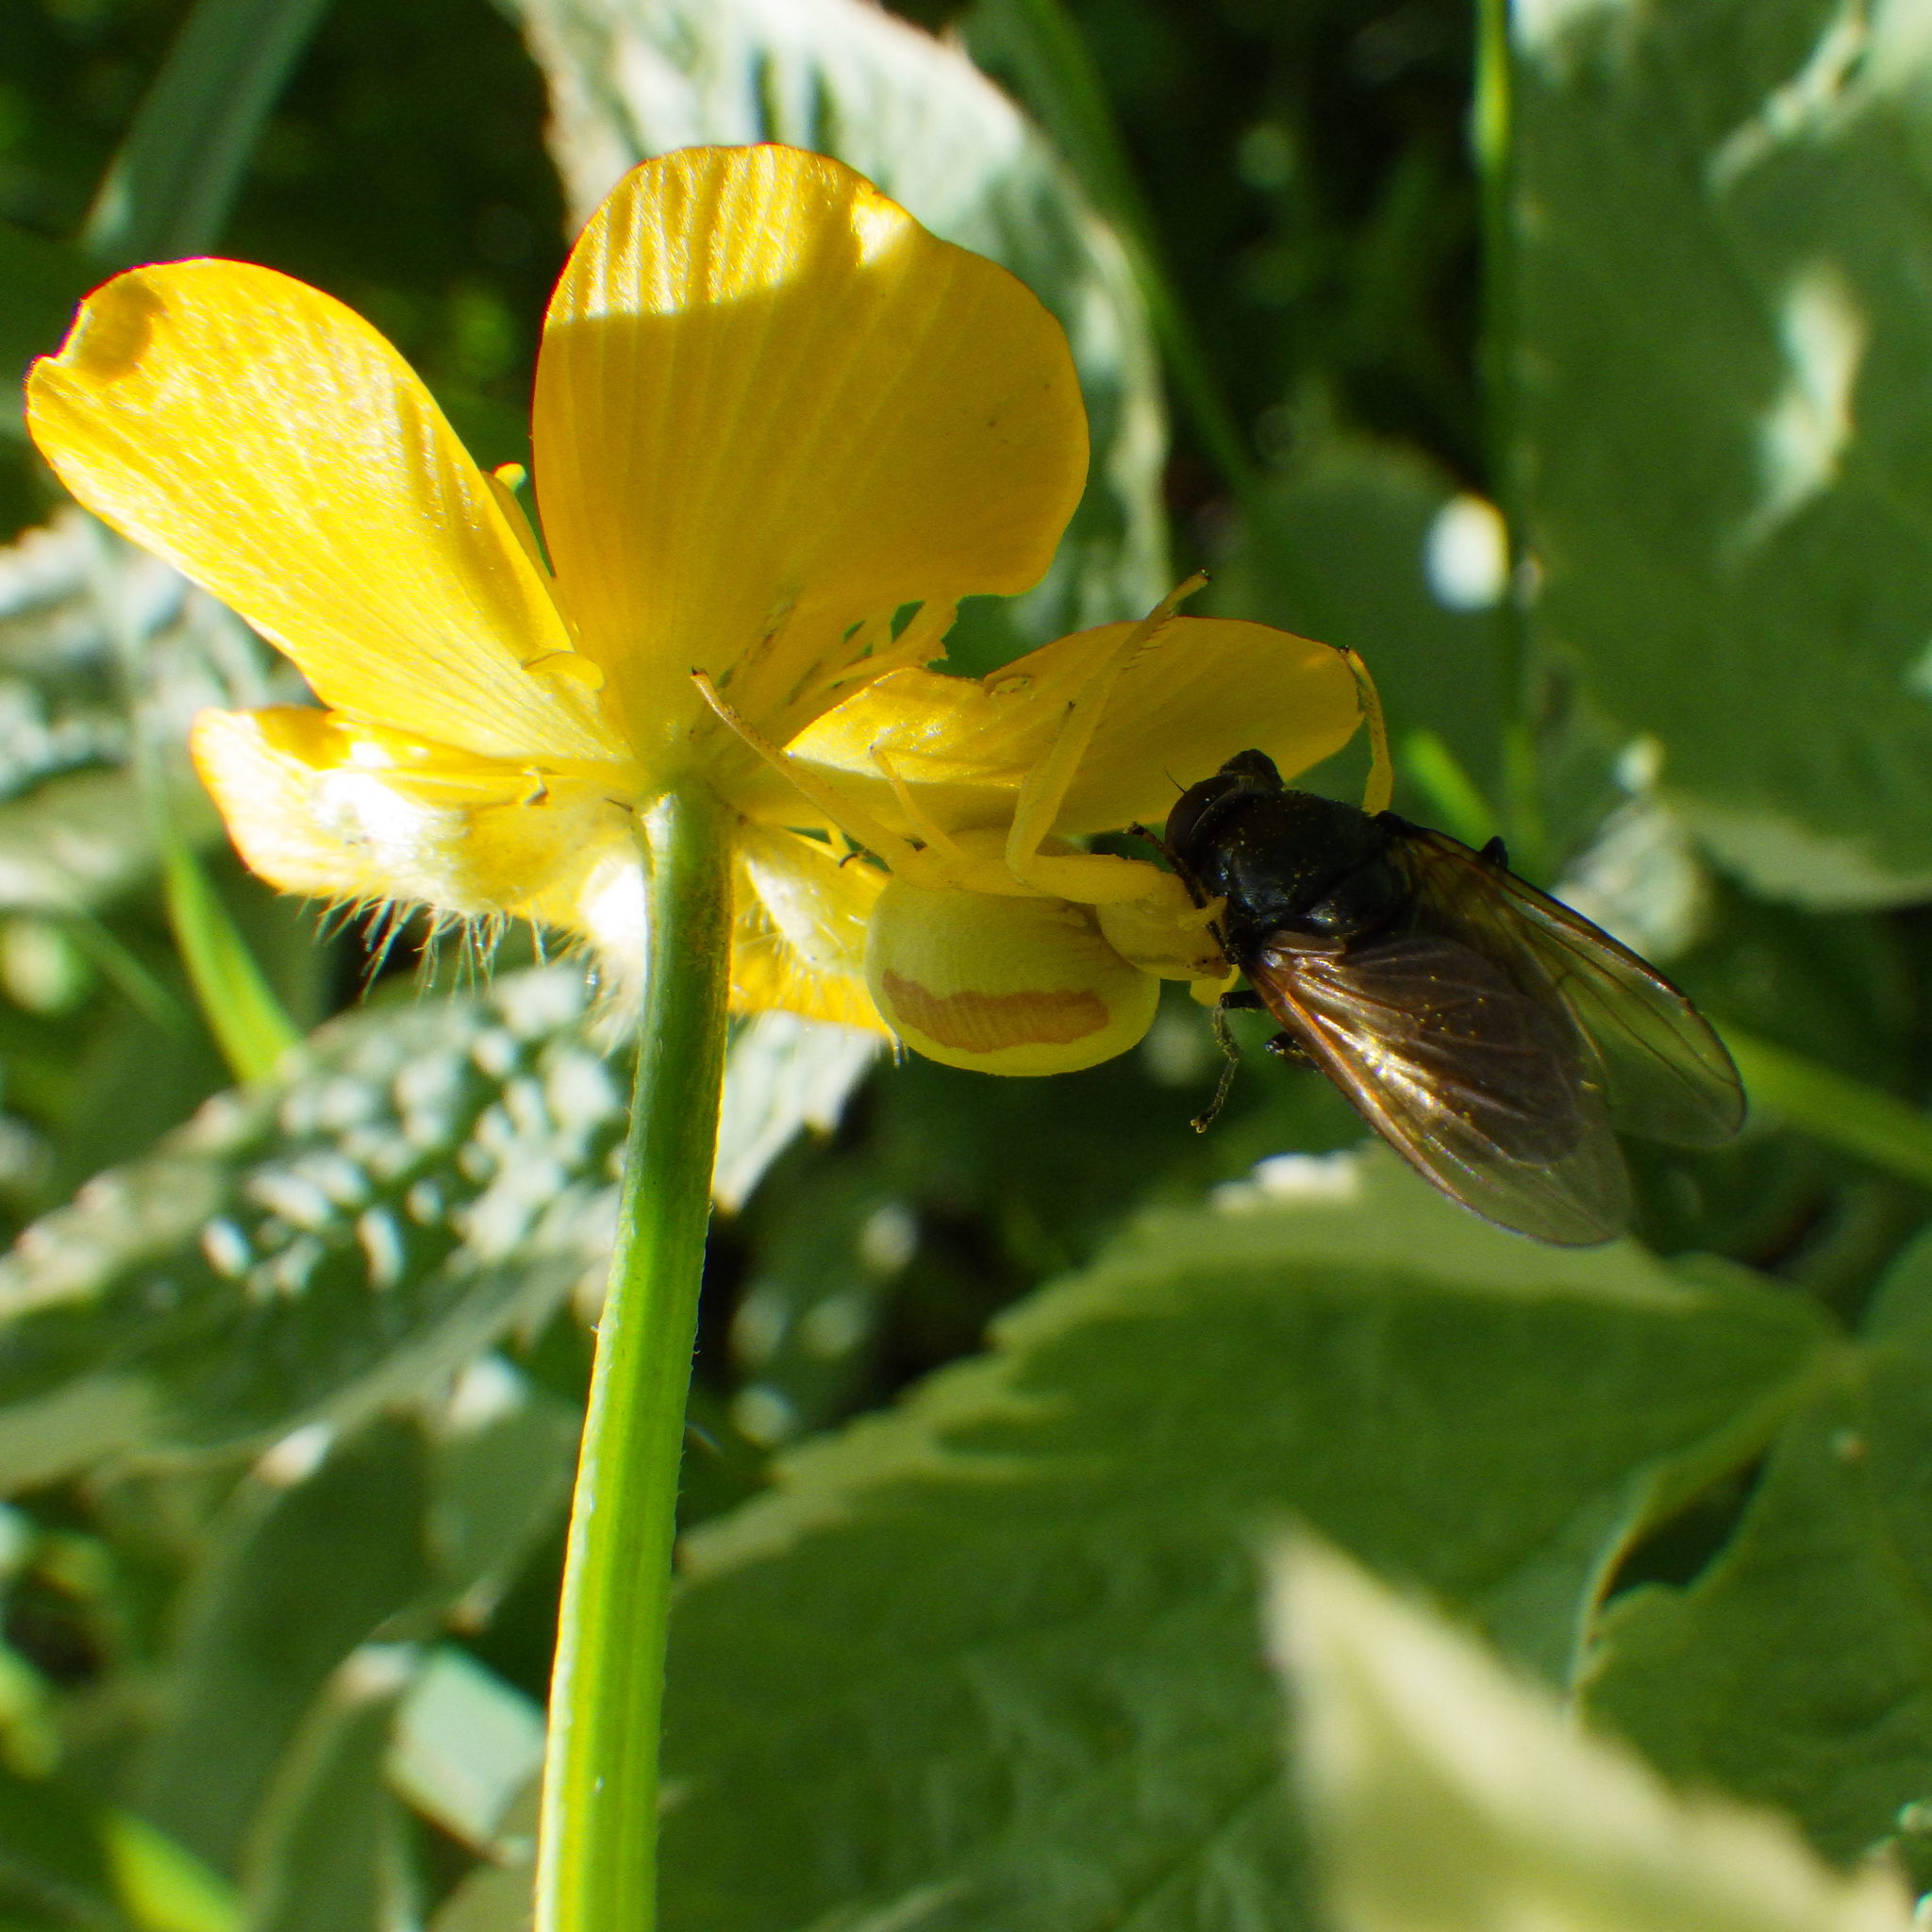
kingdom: Animalia
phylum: Arthropoda
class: Insecta
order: Diptera
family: Syrphidae
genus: Cheilosia
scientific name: Cheilosia albitarsis
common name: Buttercup blacklet
